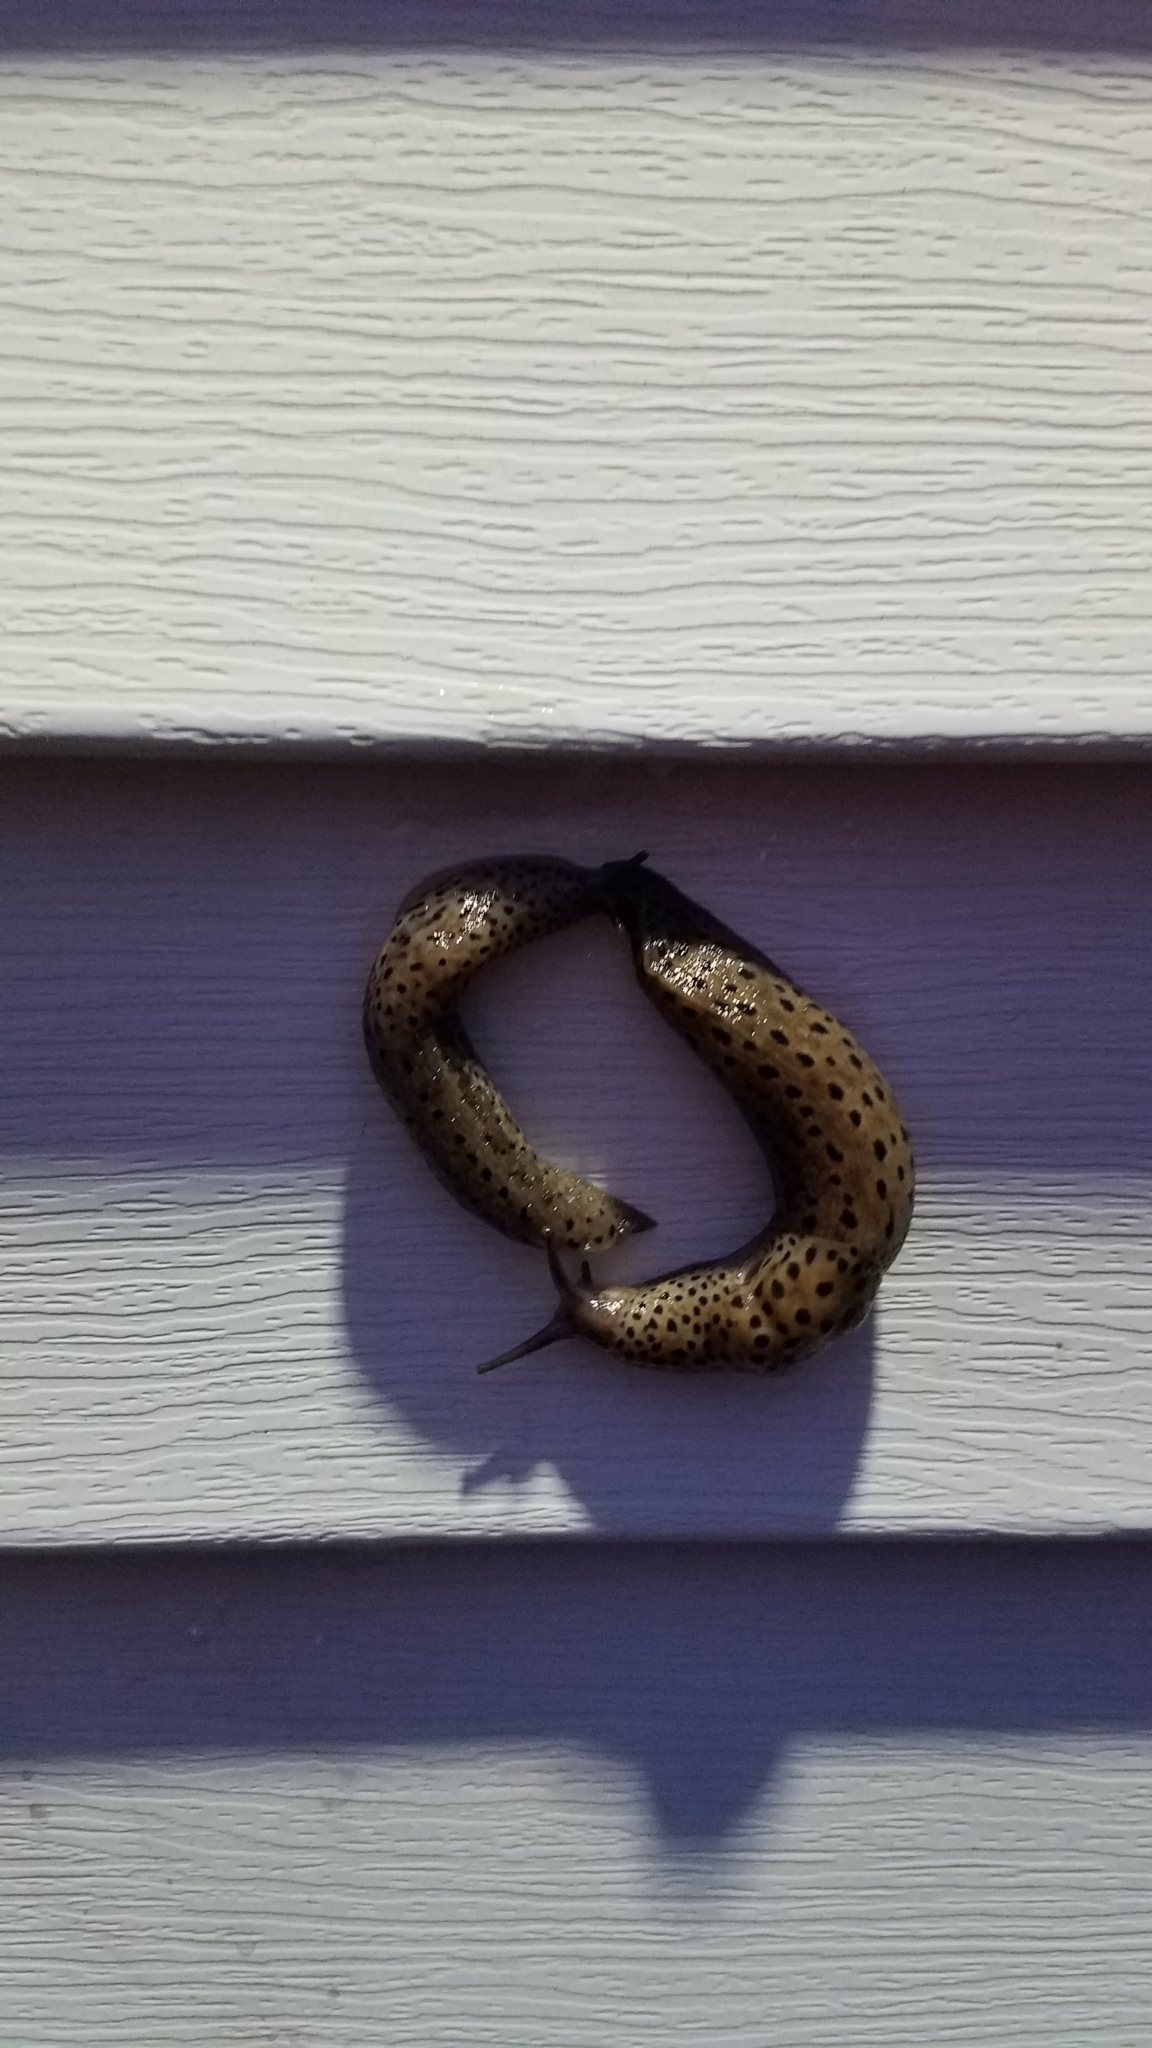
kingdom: Animalia
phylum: Mollusca
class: Gastropoda
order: Stylommatophora
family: Limacidae
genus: Limax
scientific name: Limax maximus
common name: Great grey slug
